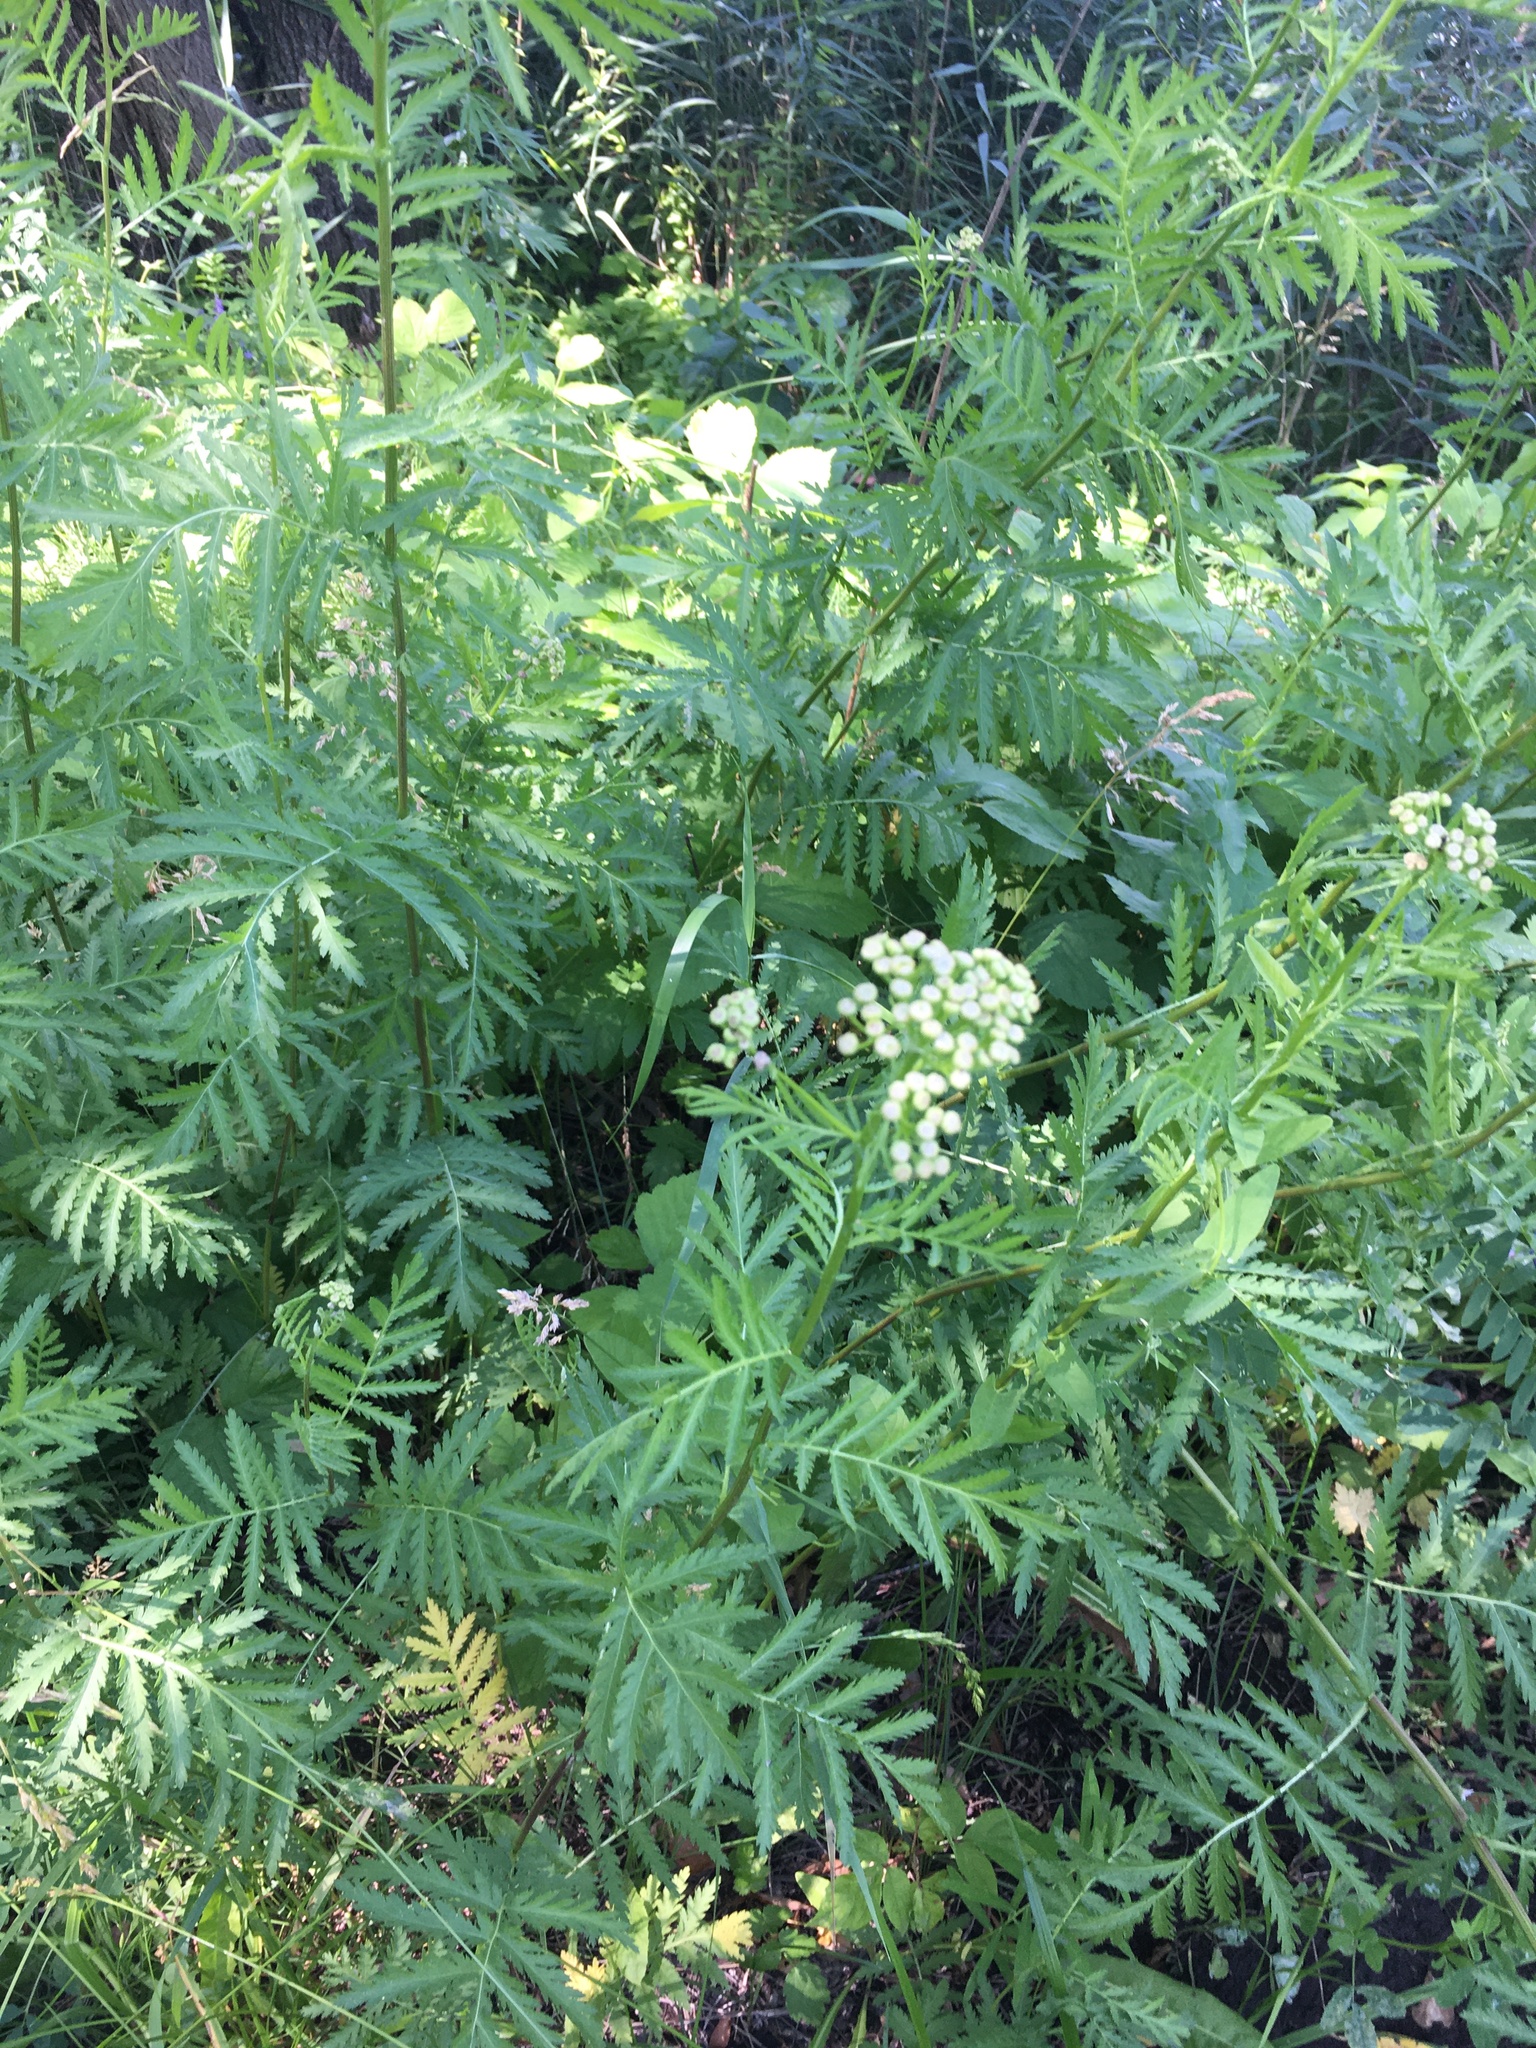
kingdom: Plantae
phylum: Tracheophyta
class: Magnoliopsida
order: Asterales
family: Asteraceae
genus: Tanacetum
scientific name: Tanacetum vulgare
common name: Common tansy
